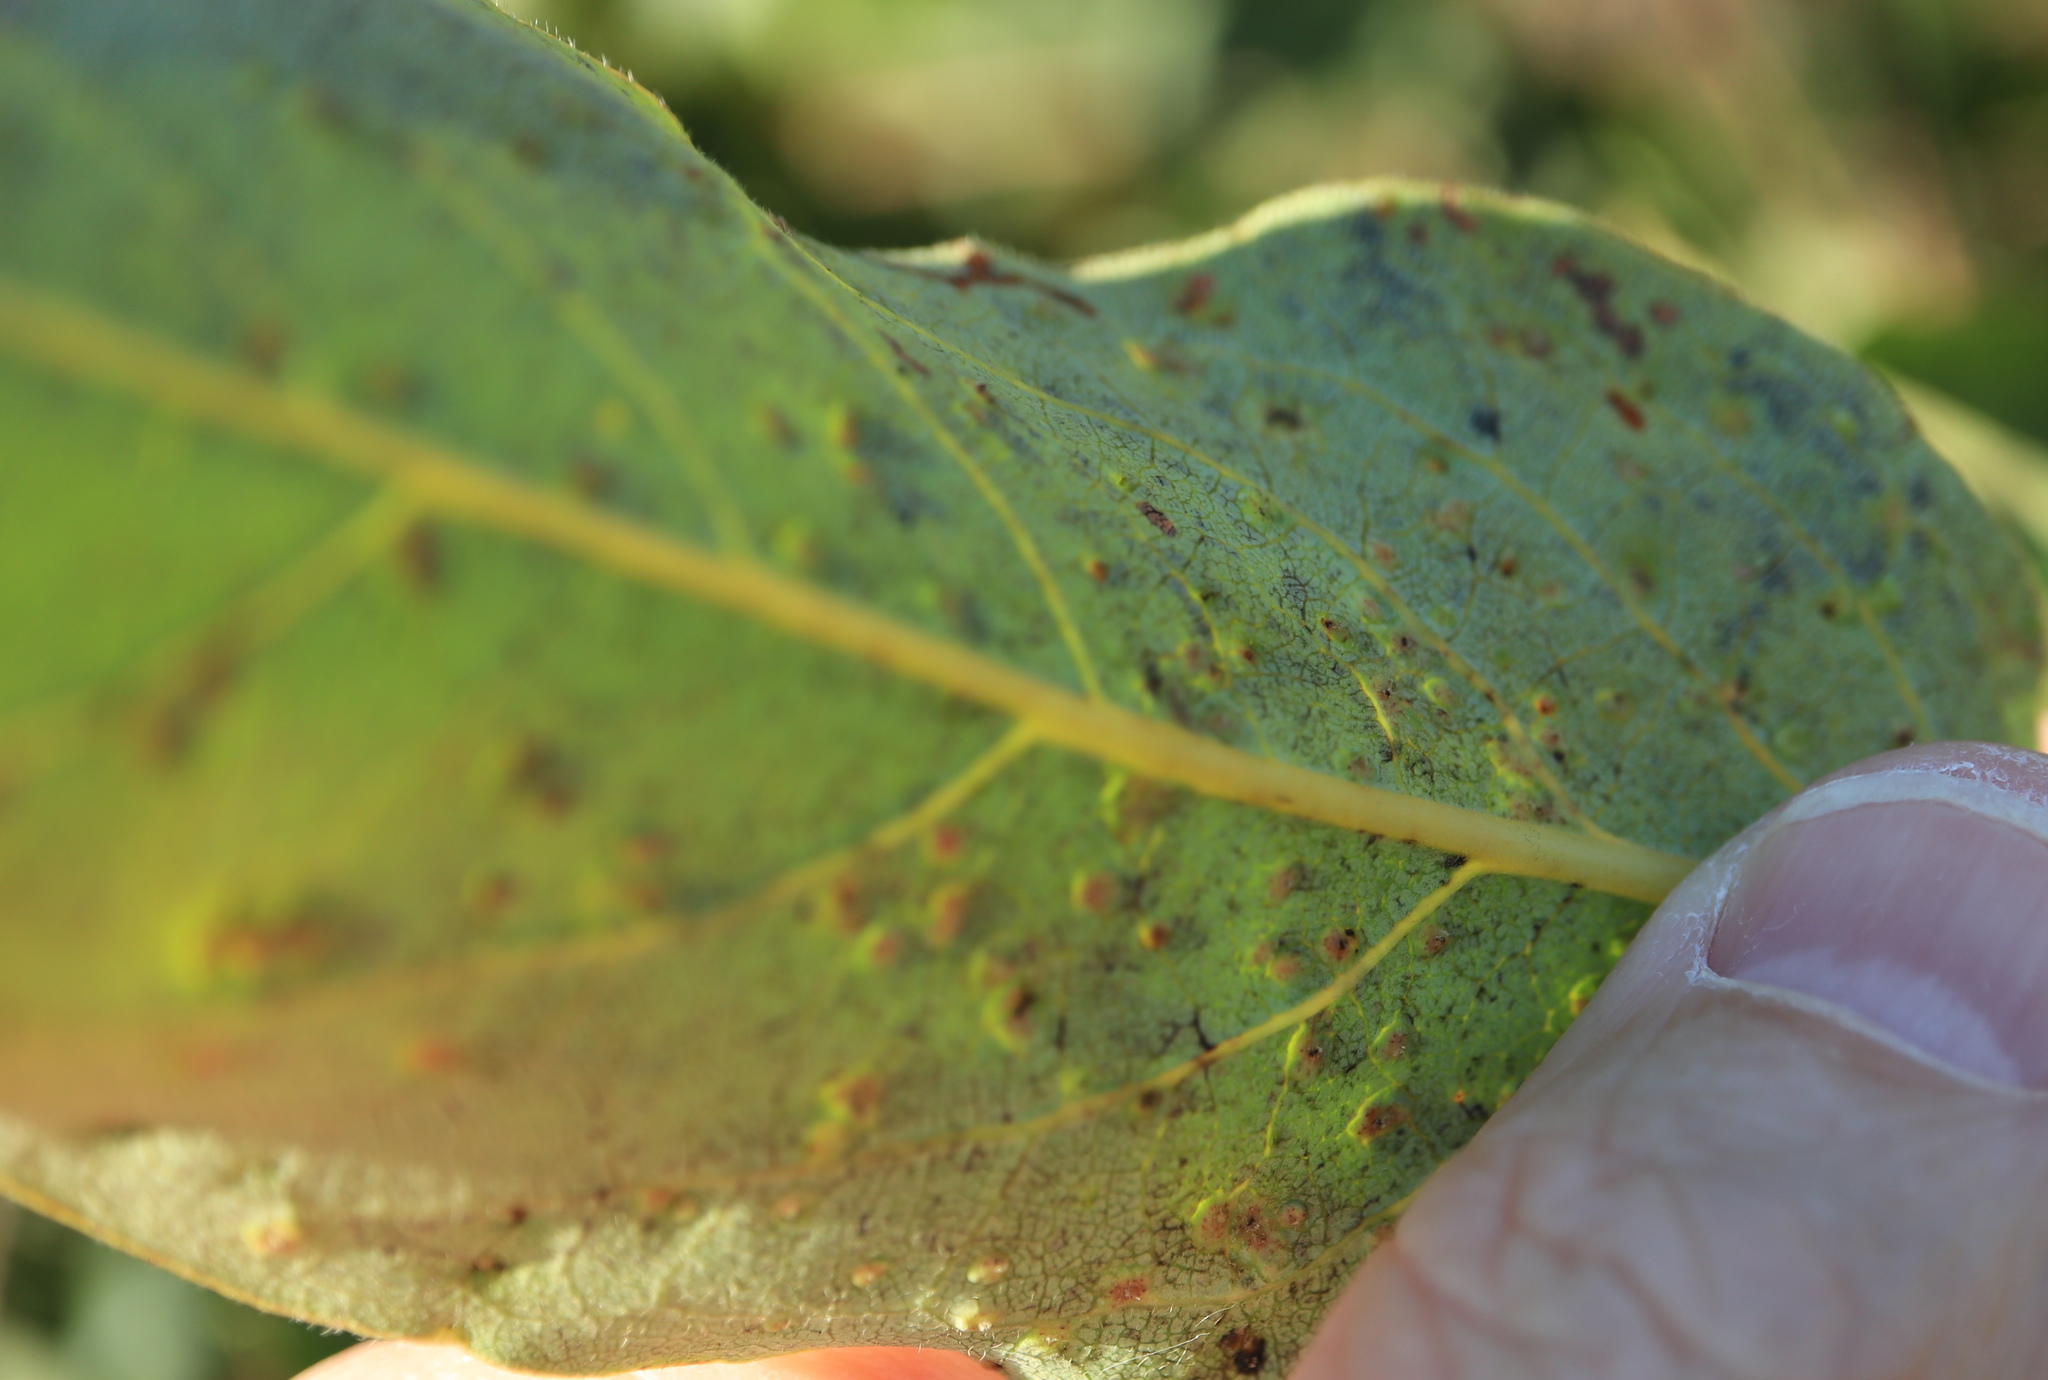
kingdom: Animalia
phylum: Arthropoda
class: Arachnida
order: Trombidiformes
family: Eriophyidae
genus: Aceria
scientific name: Aceria
